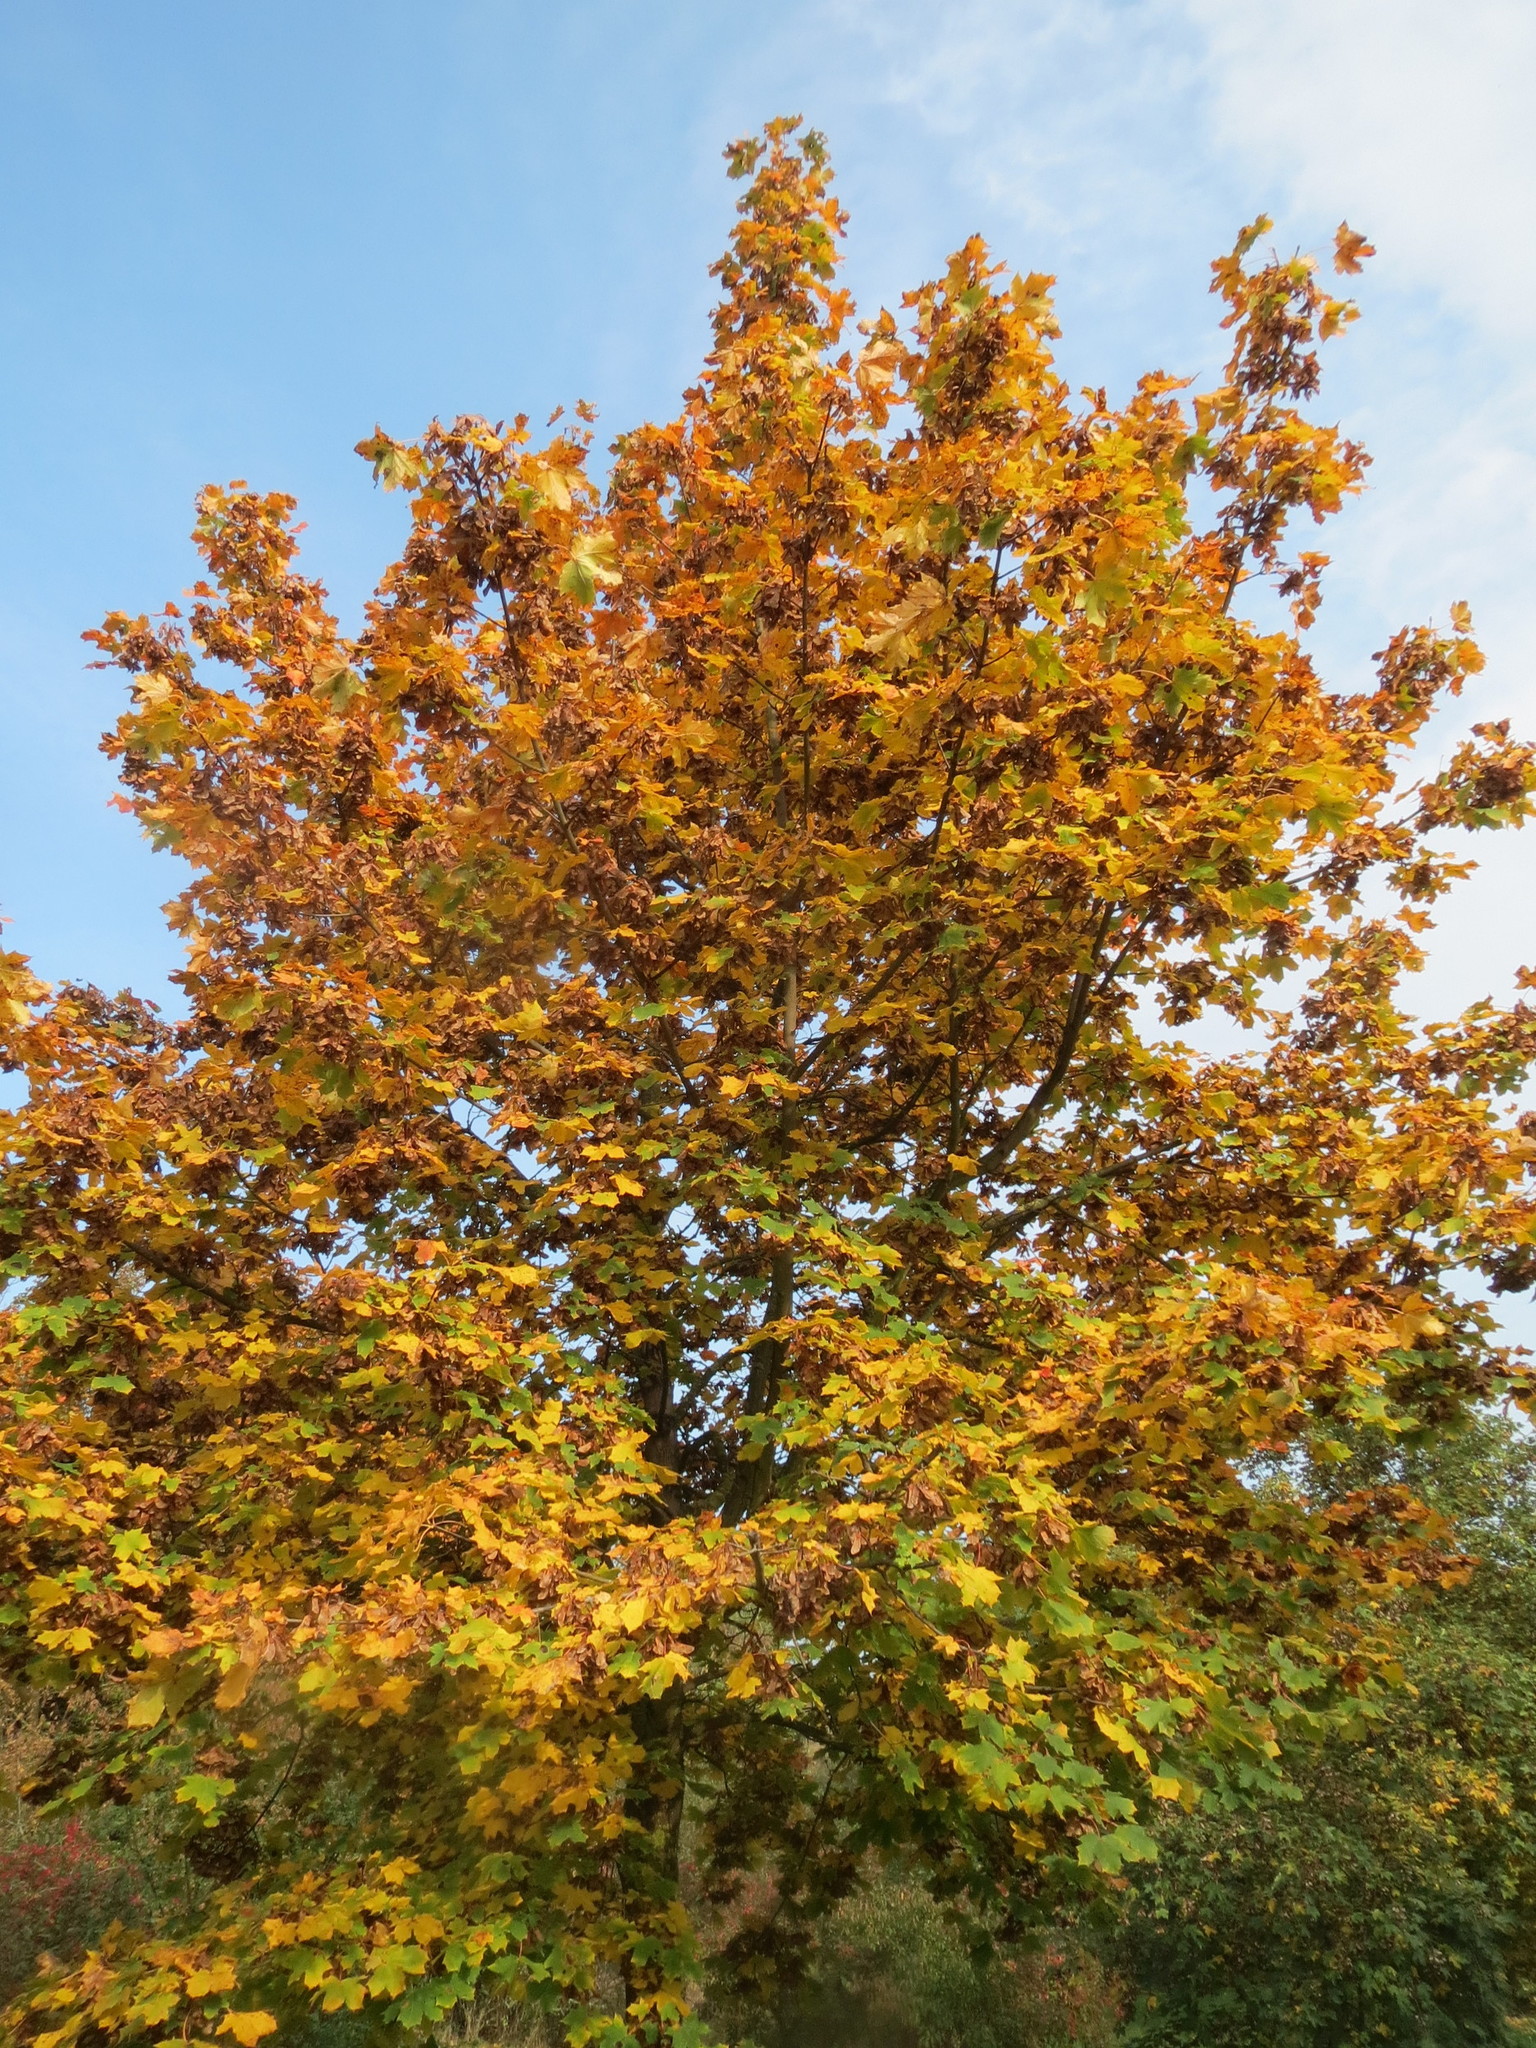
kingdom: Plantae
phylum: Tracheophyta
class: Magnoliopsida
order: Sapindales
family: Sapindaceae
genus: Acer
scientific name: Acer platanoides
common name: Norway maple
